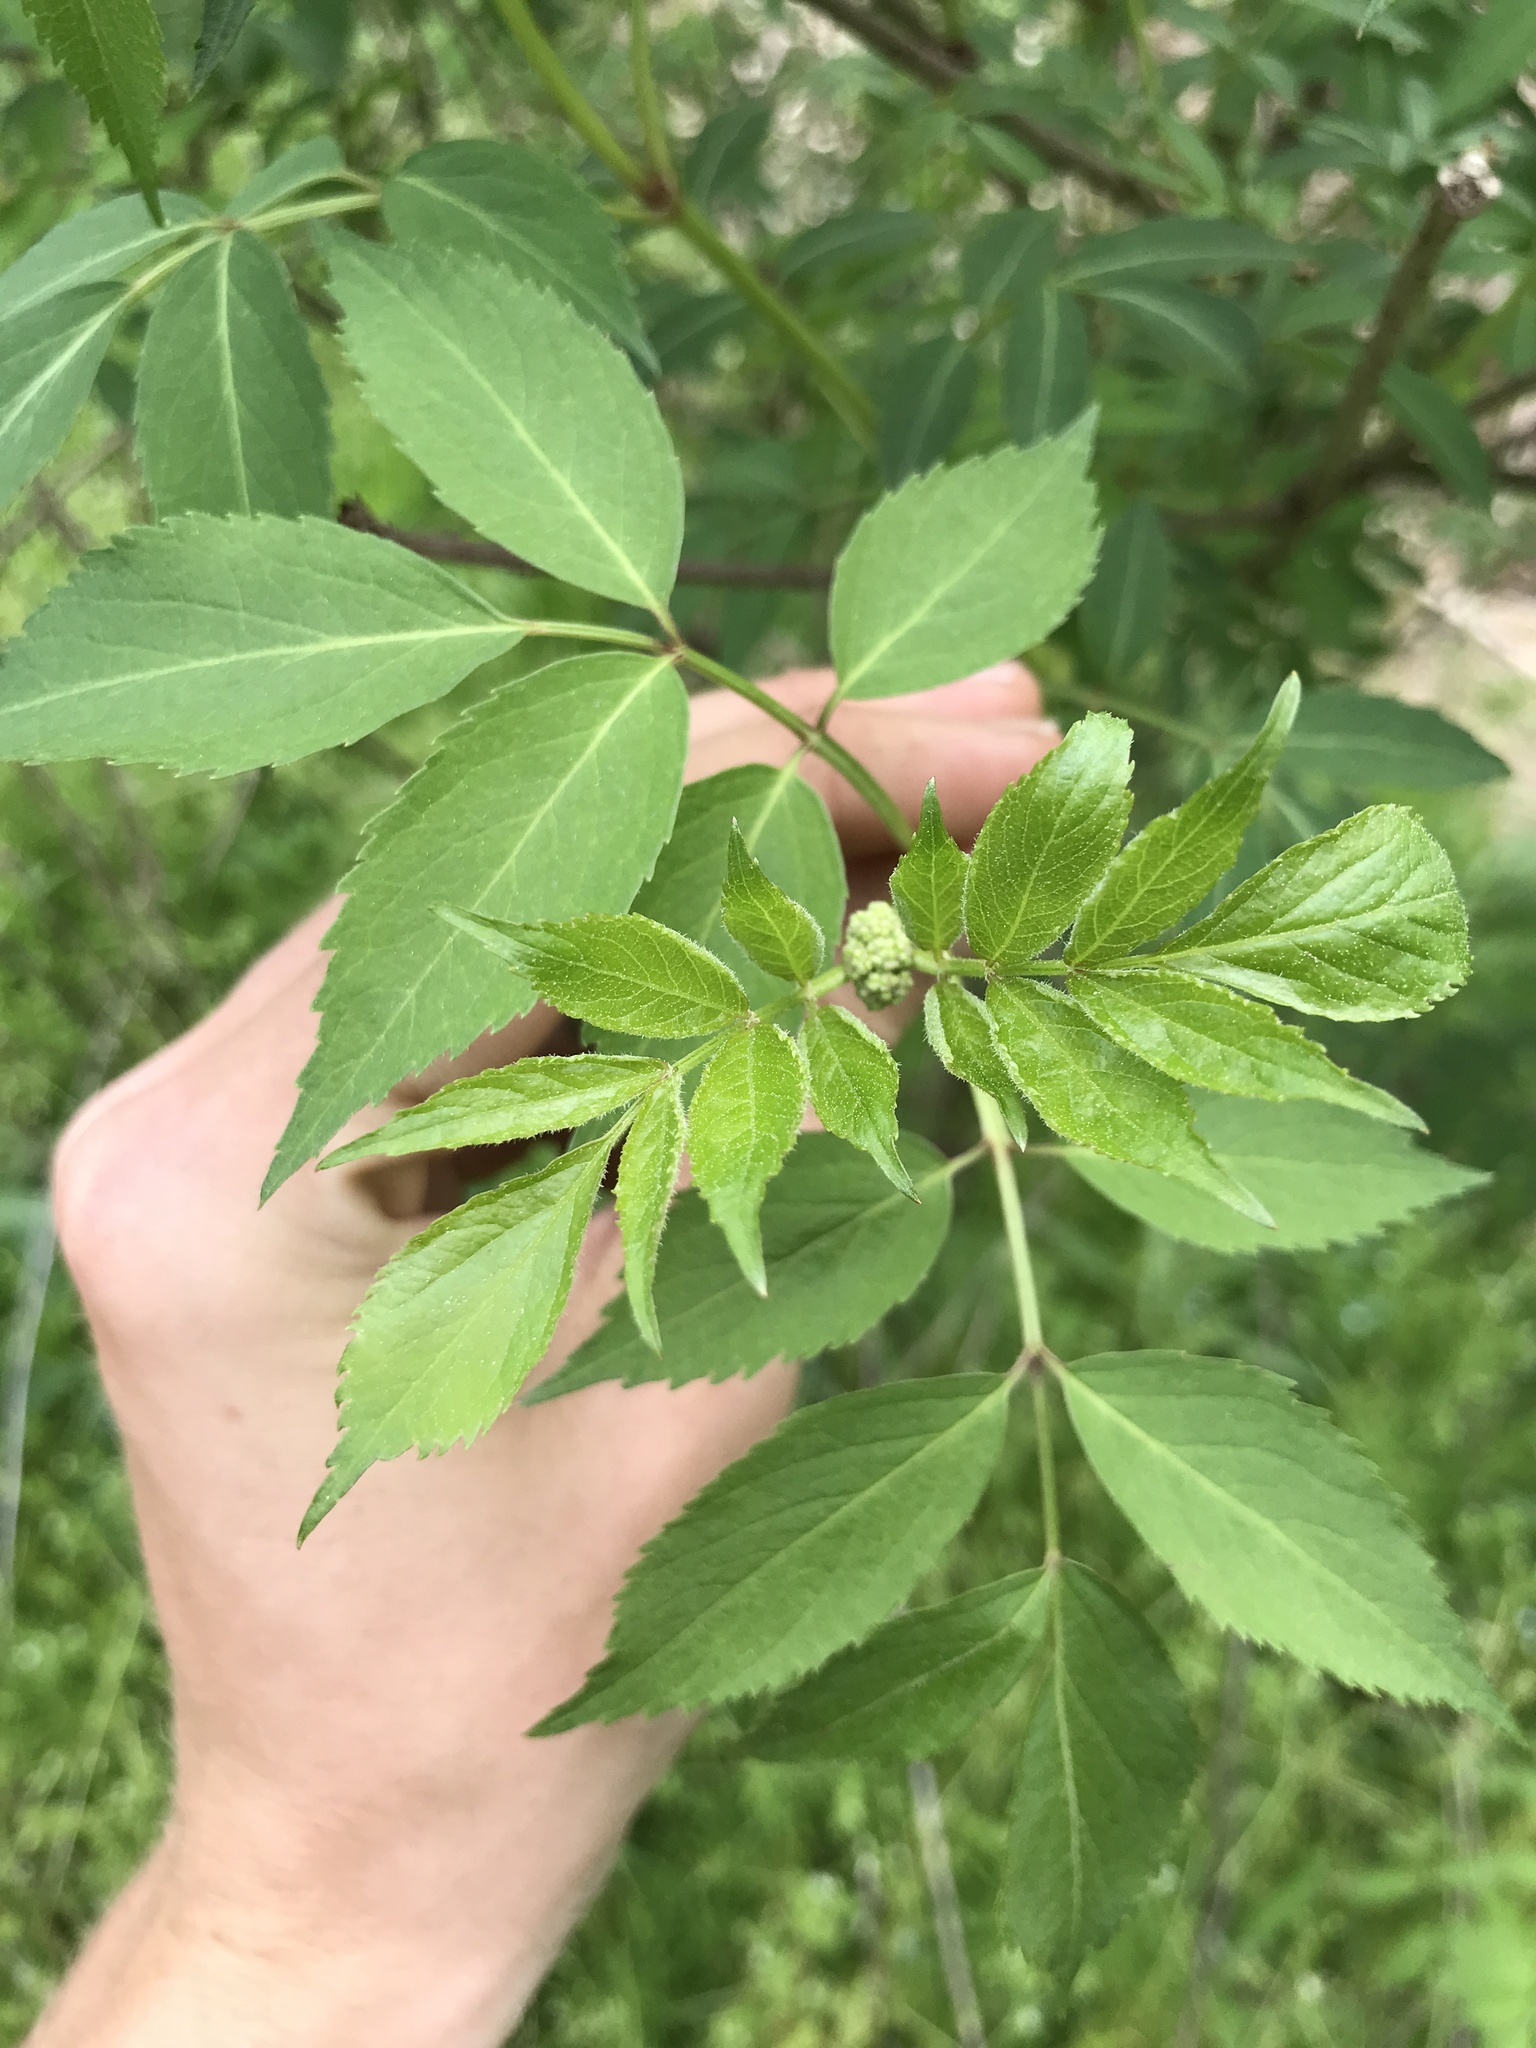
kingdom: Plantae
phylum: Tracheophyta
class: Magnoliopsida
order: Dipsacales
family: Viburnaceae
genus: Sambucus
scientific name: Sambucus canadensis
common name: American elder
